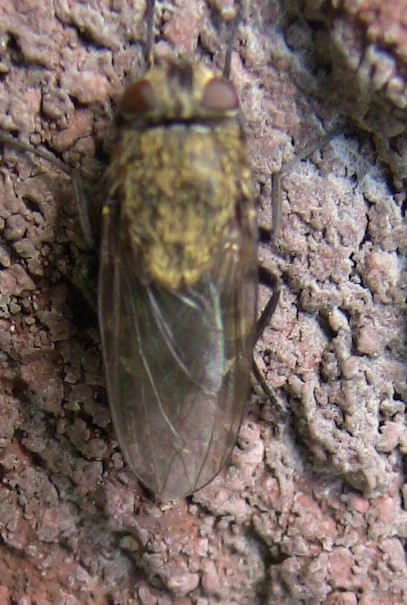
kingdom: Animalia
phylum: Arthropoda
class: Insecta
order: Diptera
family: Polleniidae
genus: Pollenia
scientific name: Pollenia
